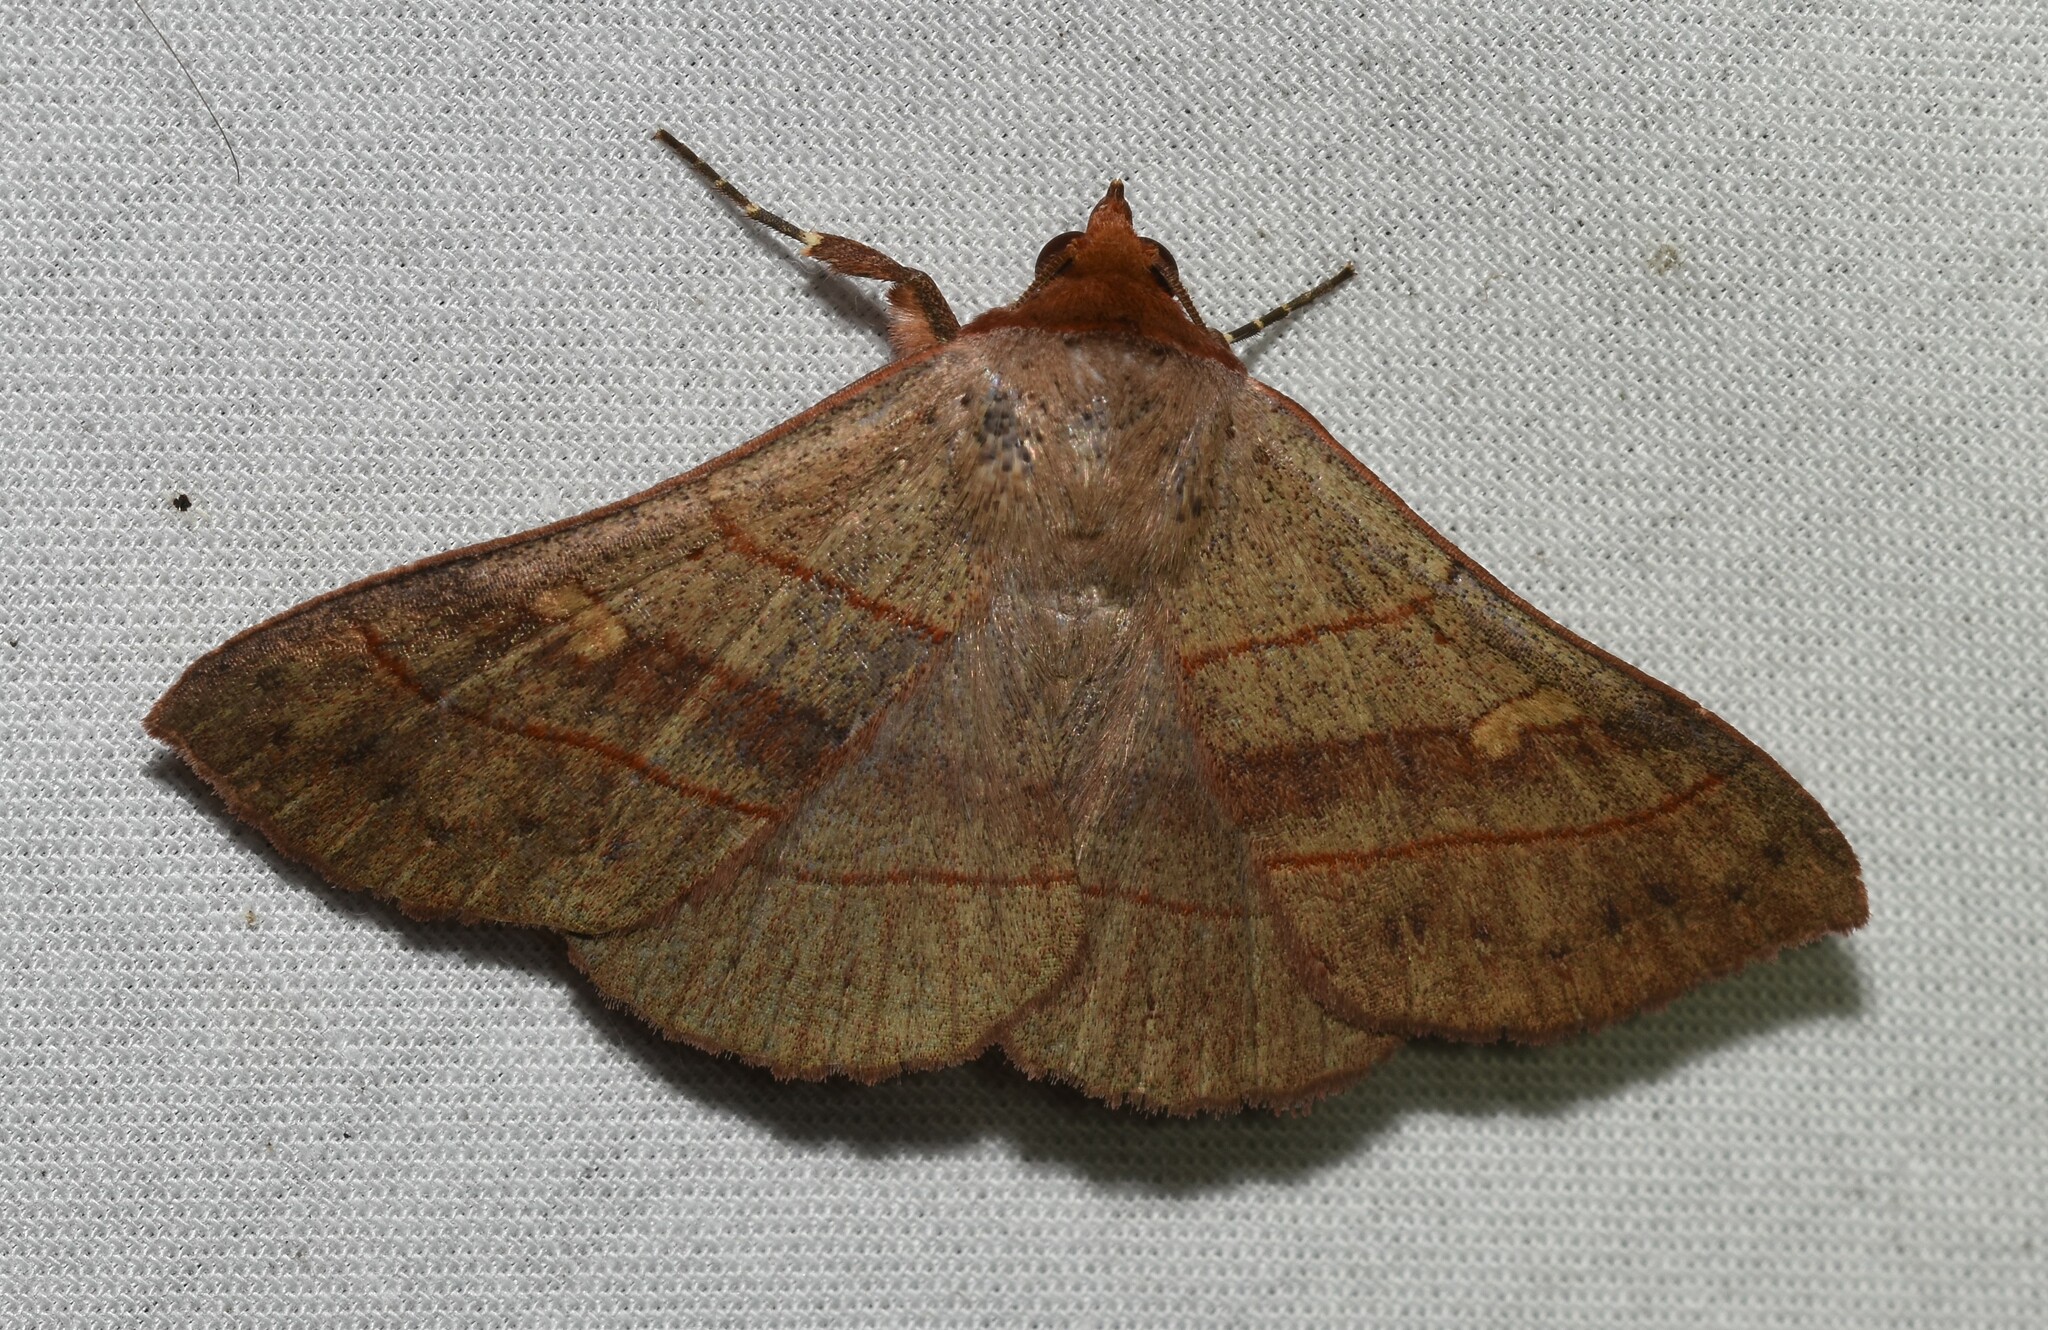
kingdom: Animalia
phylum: Arthropoda
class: Insecta
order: Lepidoptera
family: Erebidae
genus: Panopoda
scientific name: Panopoda rufimargo
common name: Red-lined panopoda moth
